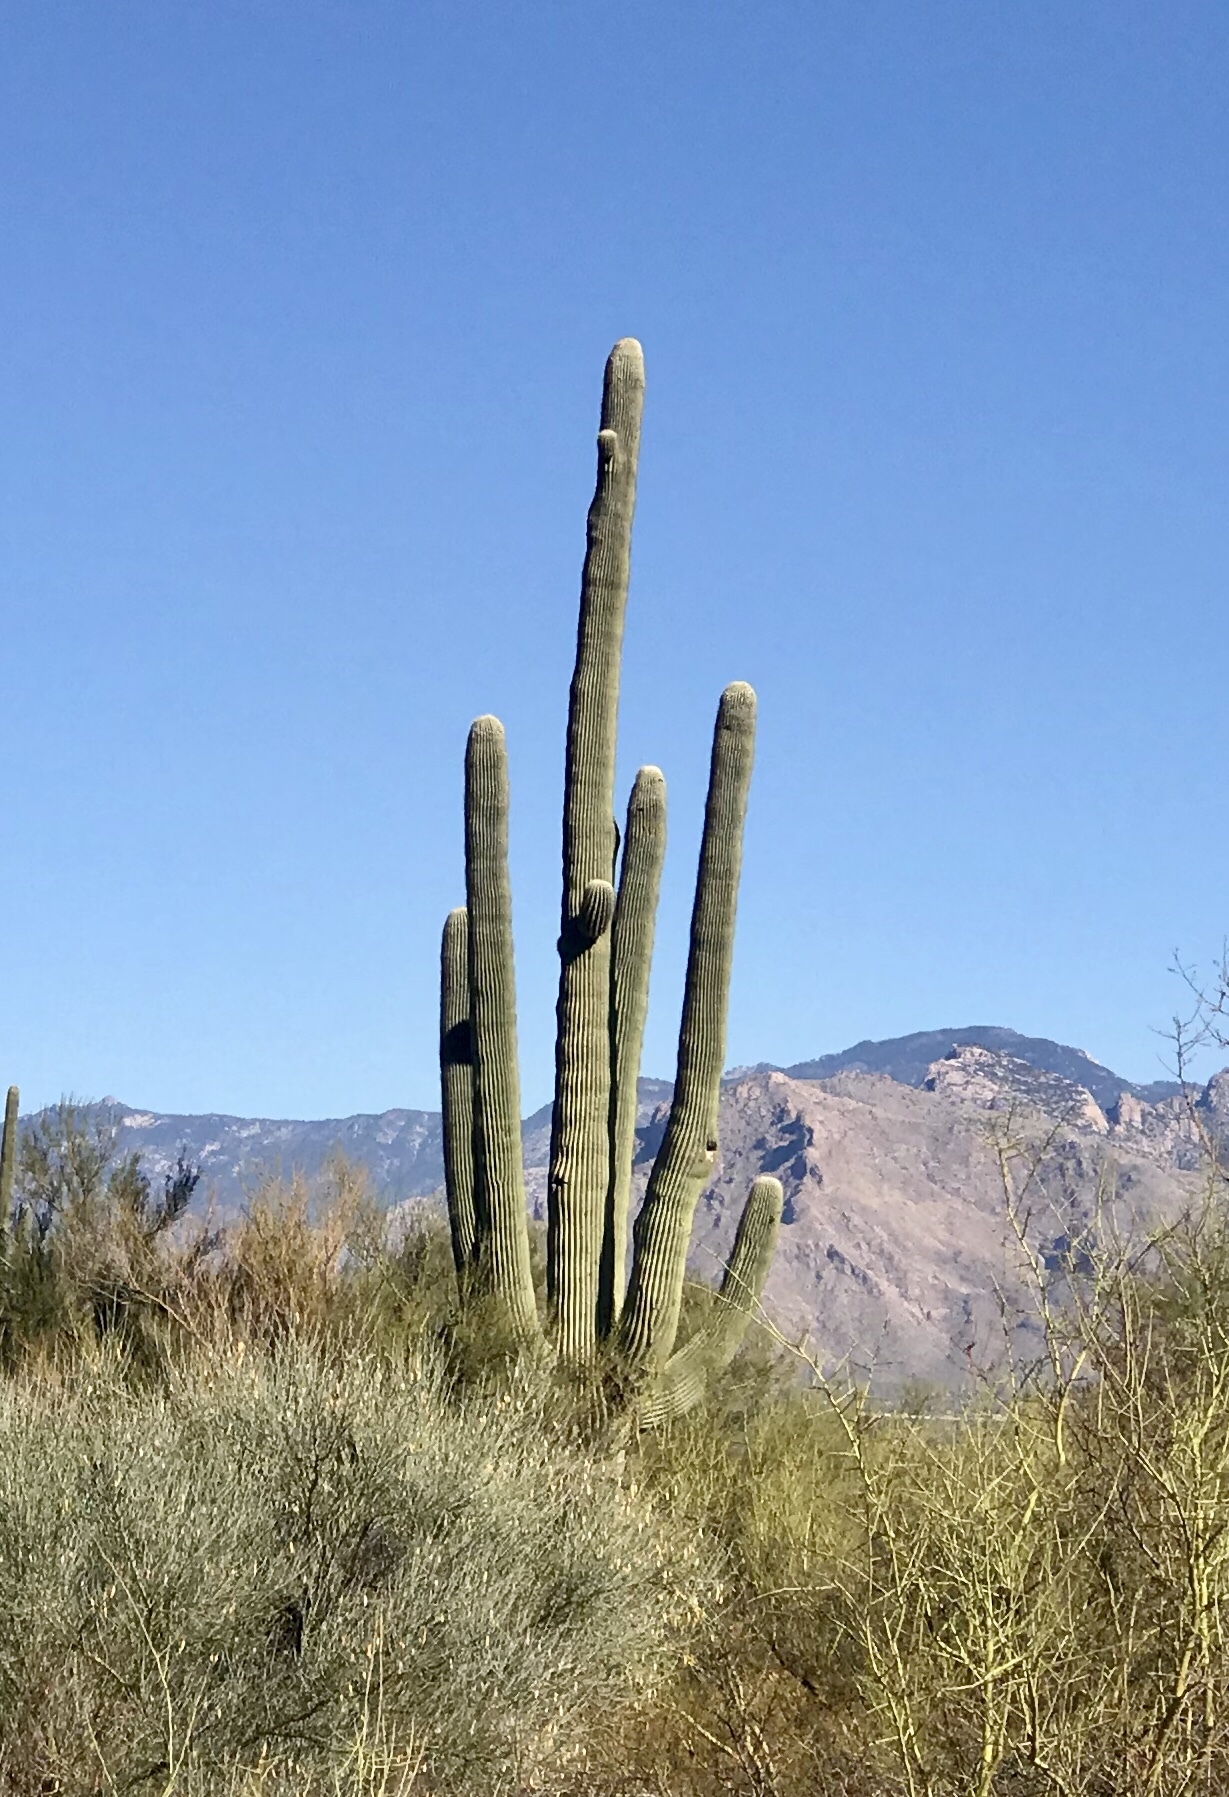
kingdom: Plantae
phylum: Tracheophyta
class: Magnoliopsida
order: Caryophyllales
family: Cactaceae
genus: Carnegiea
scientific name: Carnegiea gigantea
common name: Saguaro
